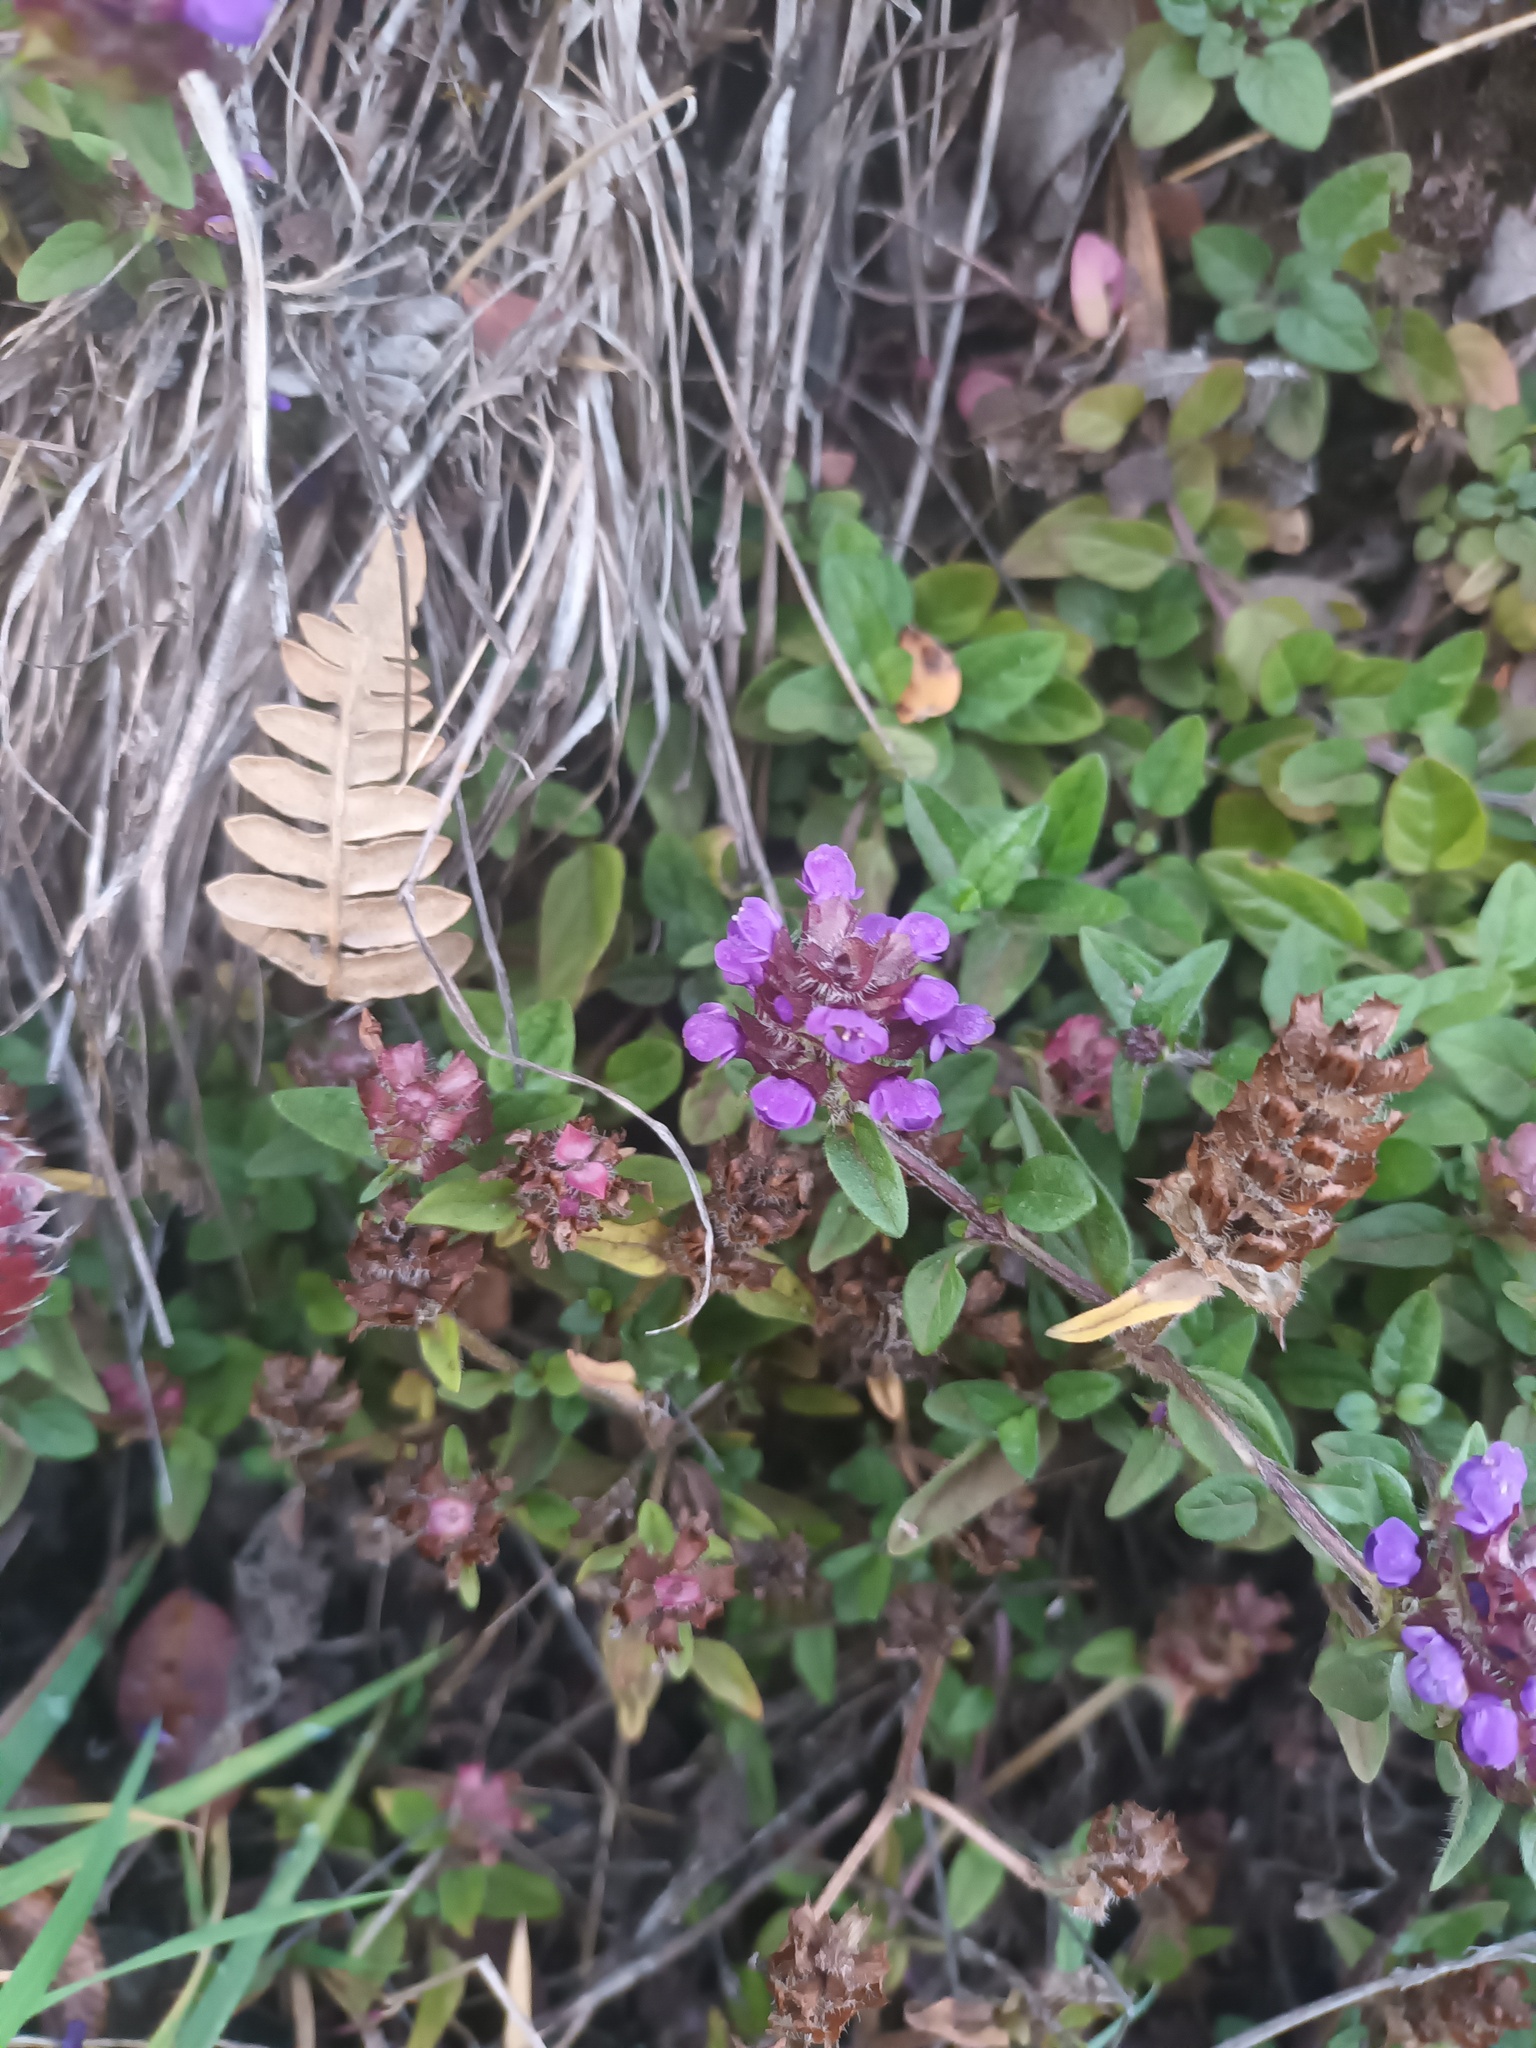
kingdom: Plantae
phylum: Tracheophyta
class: Magnoliopsida
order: Lamiales
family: Lamiaceae
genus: Prunella
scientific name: Prunella vulgaris
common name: Heal-all
